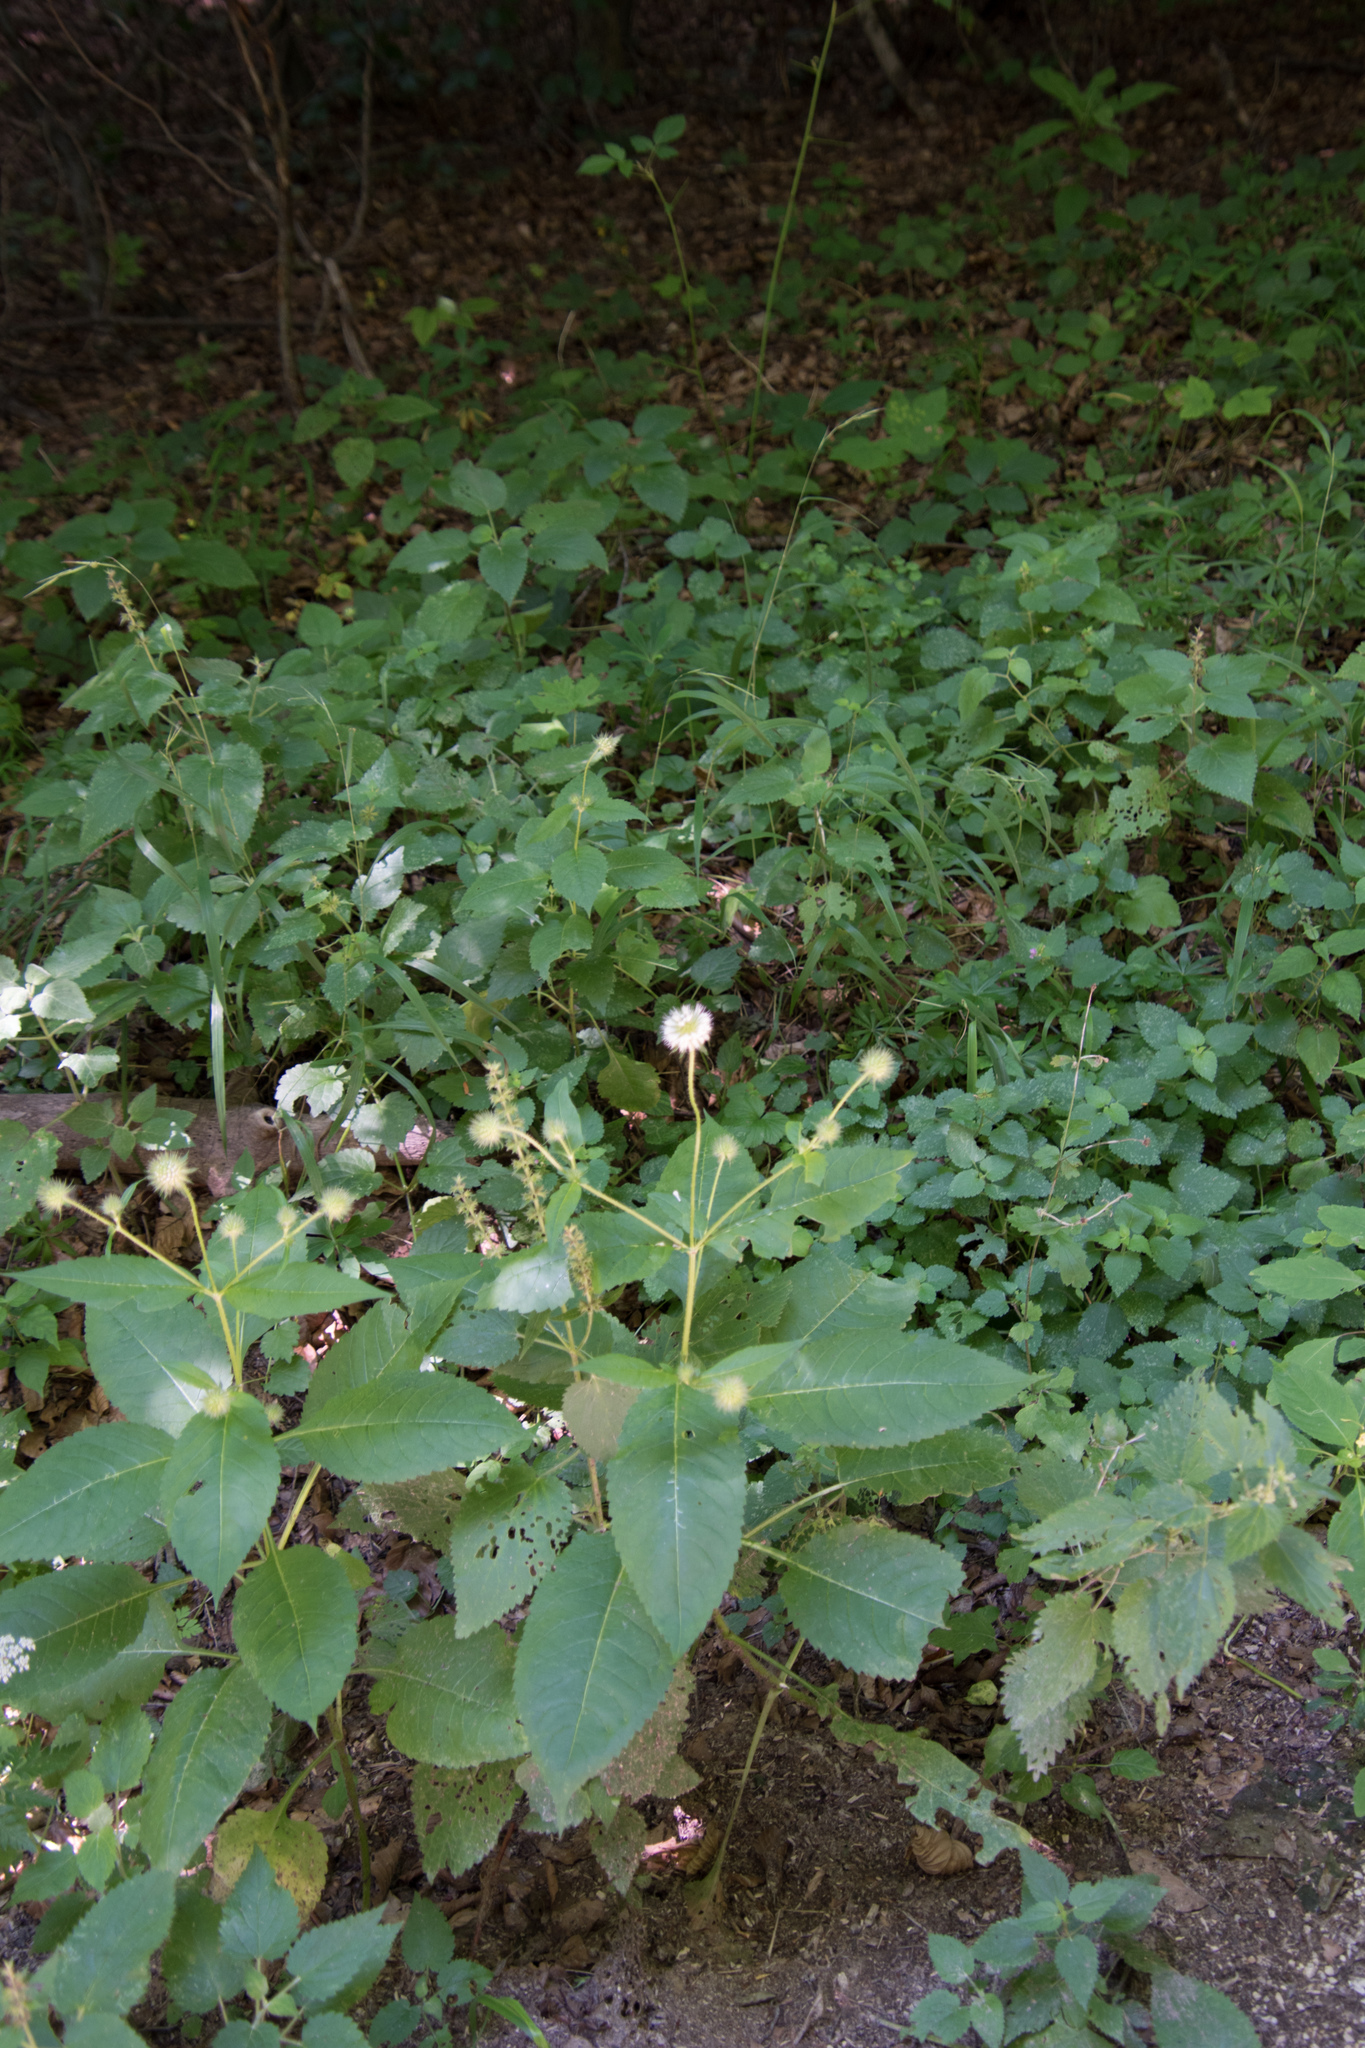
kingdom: Plantae
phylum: Tracheophyta
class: Magnoliopsida
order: Dipsacales
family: Caprifoliaceae
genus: Dipsacus
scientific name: Dipsacus pilosus
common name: Small teasel
